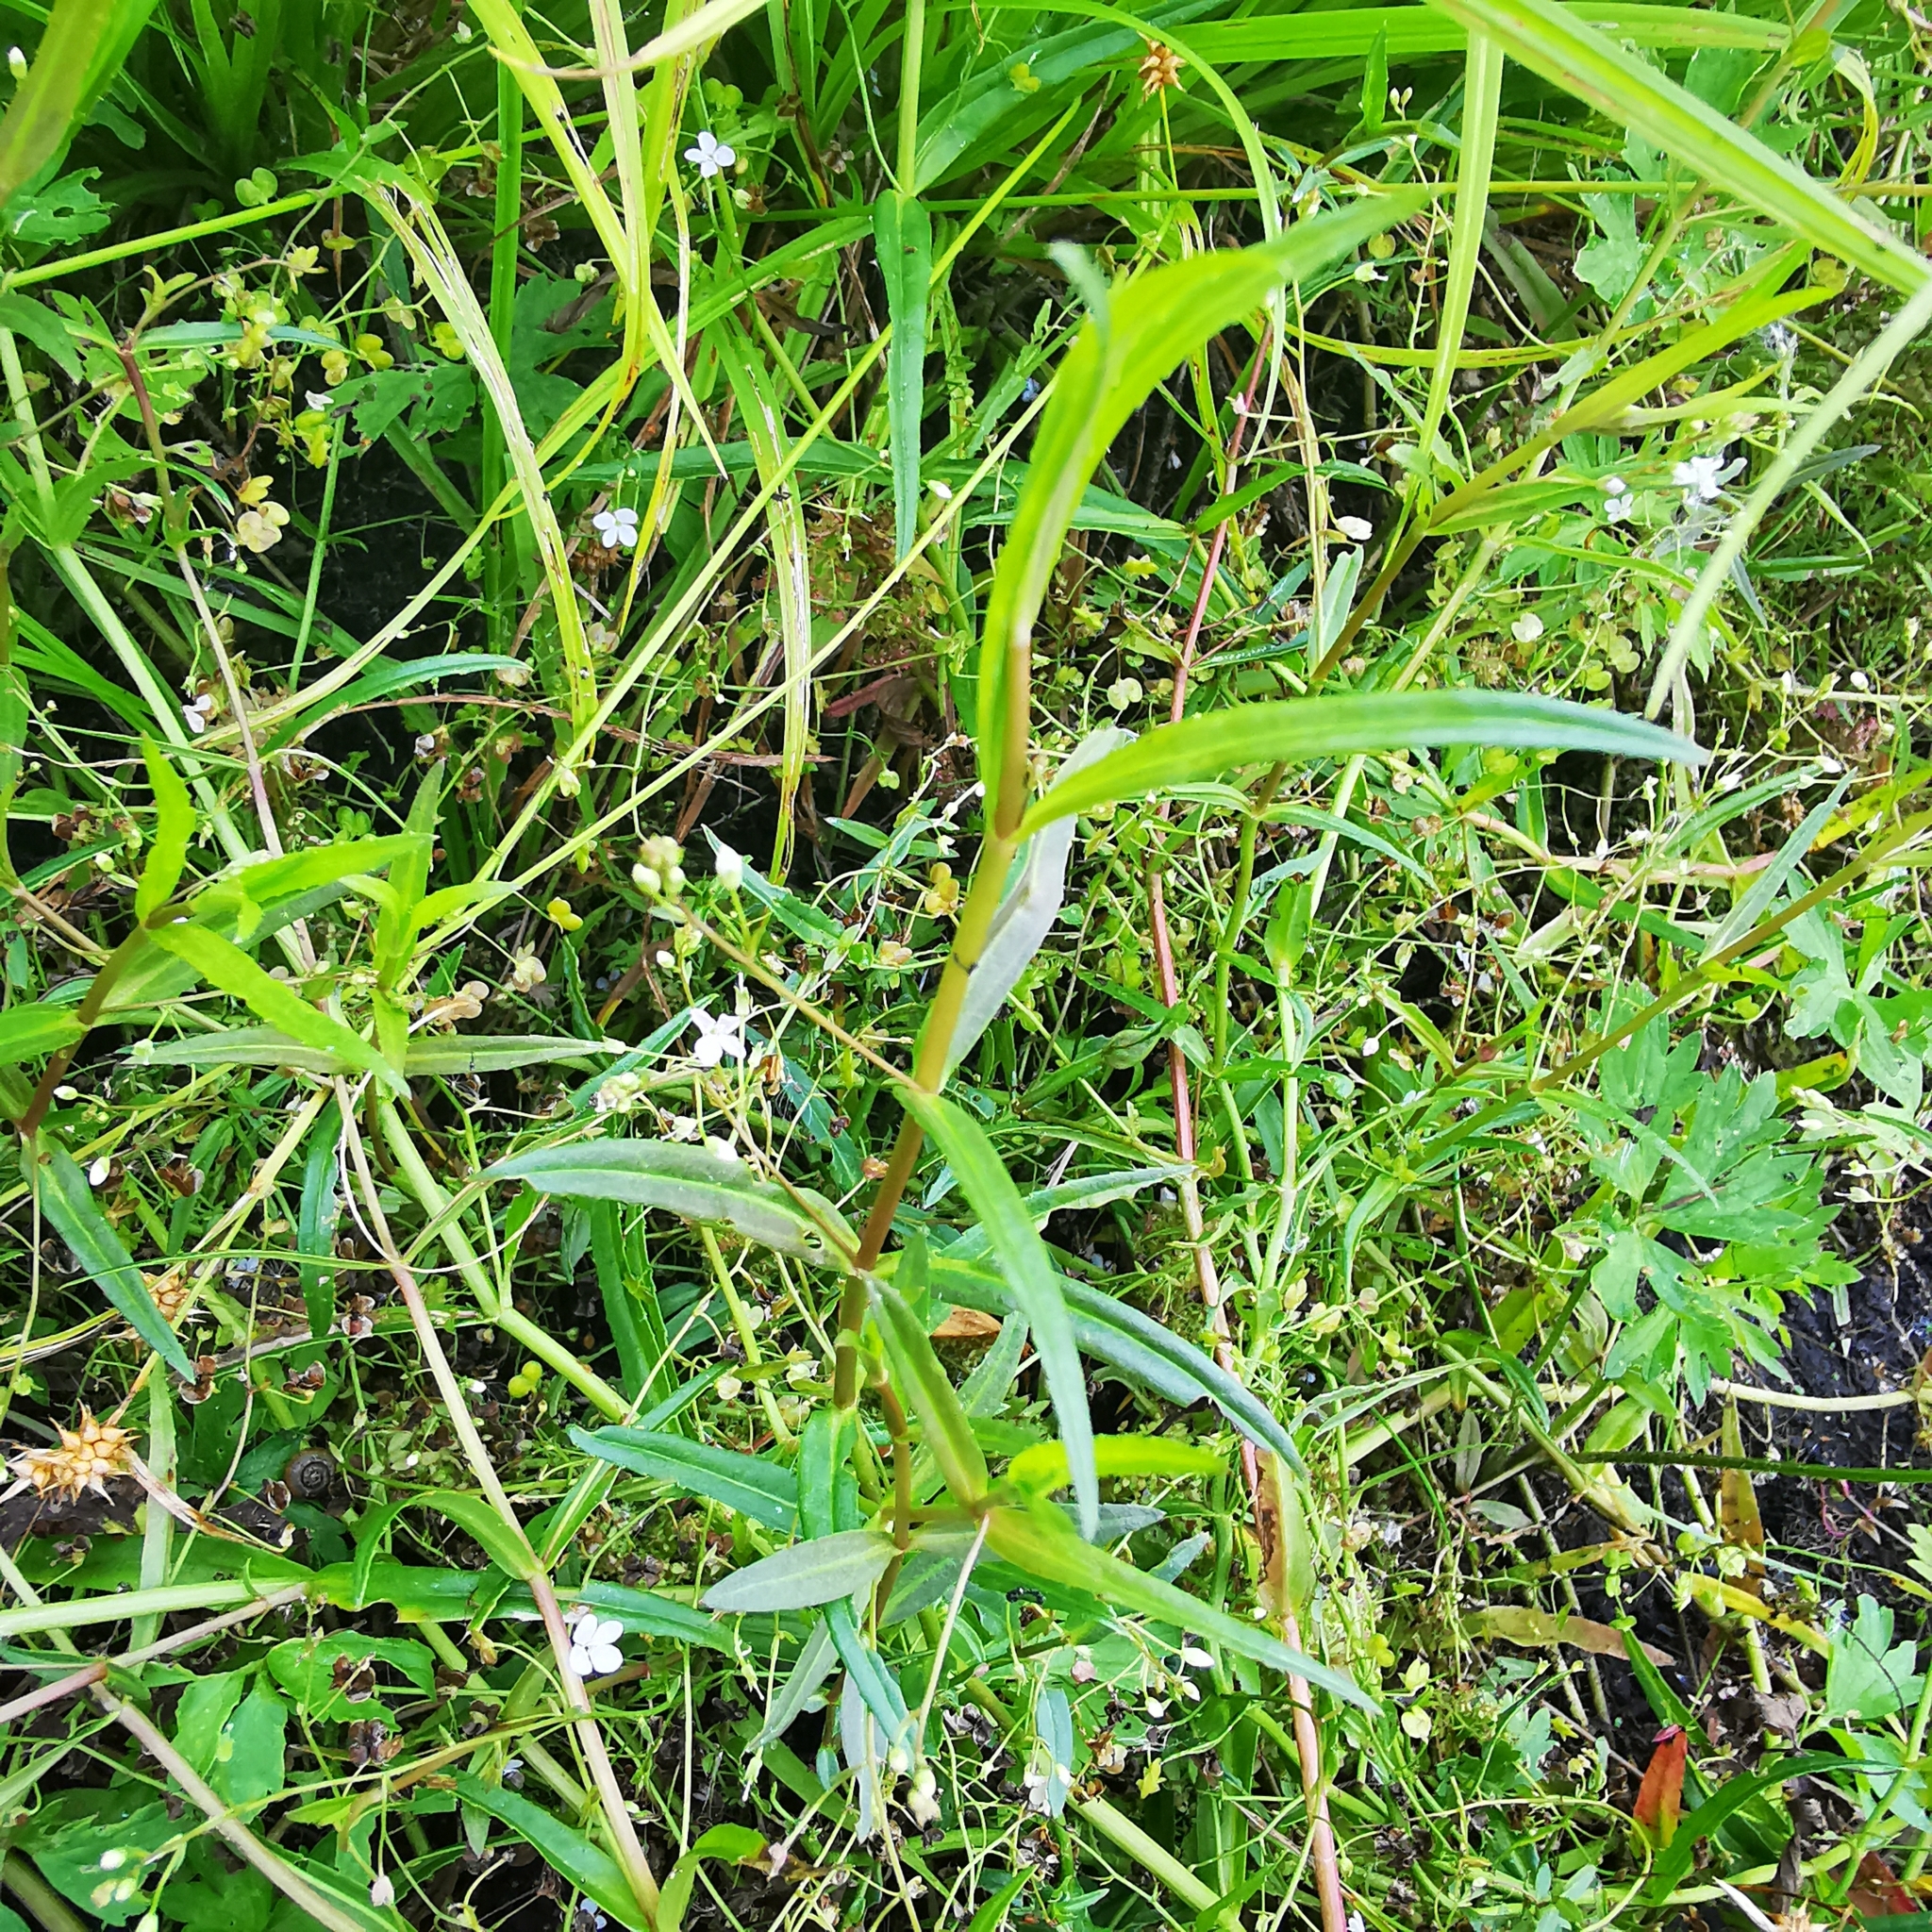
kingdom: Plantae
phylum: Tracheophyta
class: Magnoliopsida
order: Lamiales
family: Plantaginaceae
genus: Veronica
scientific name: Veronica scutellata
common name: Marsh speedwell
